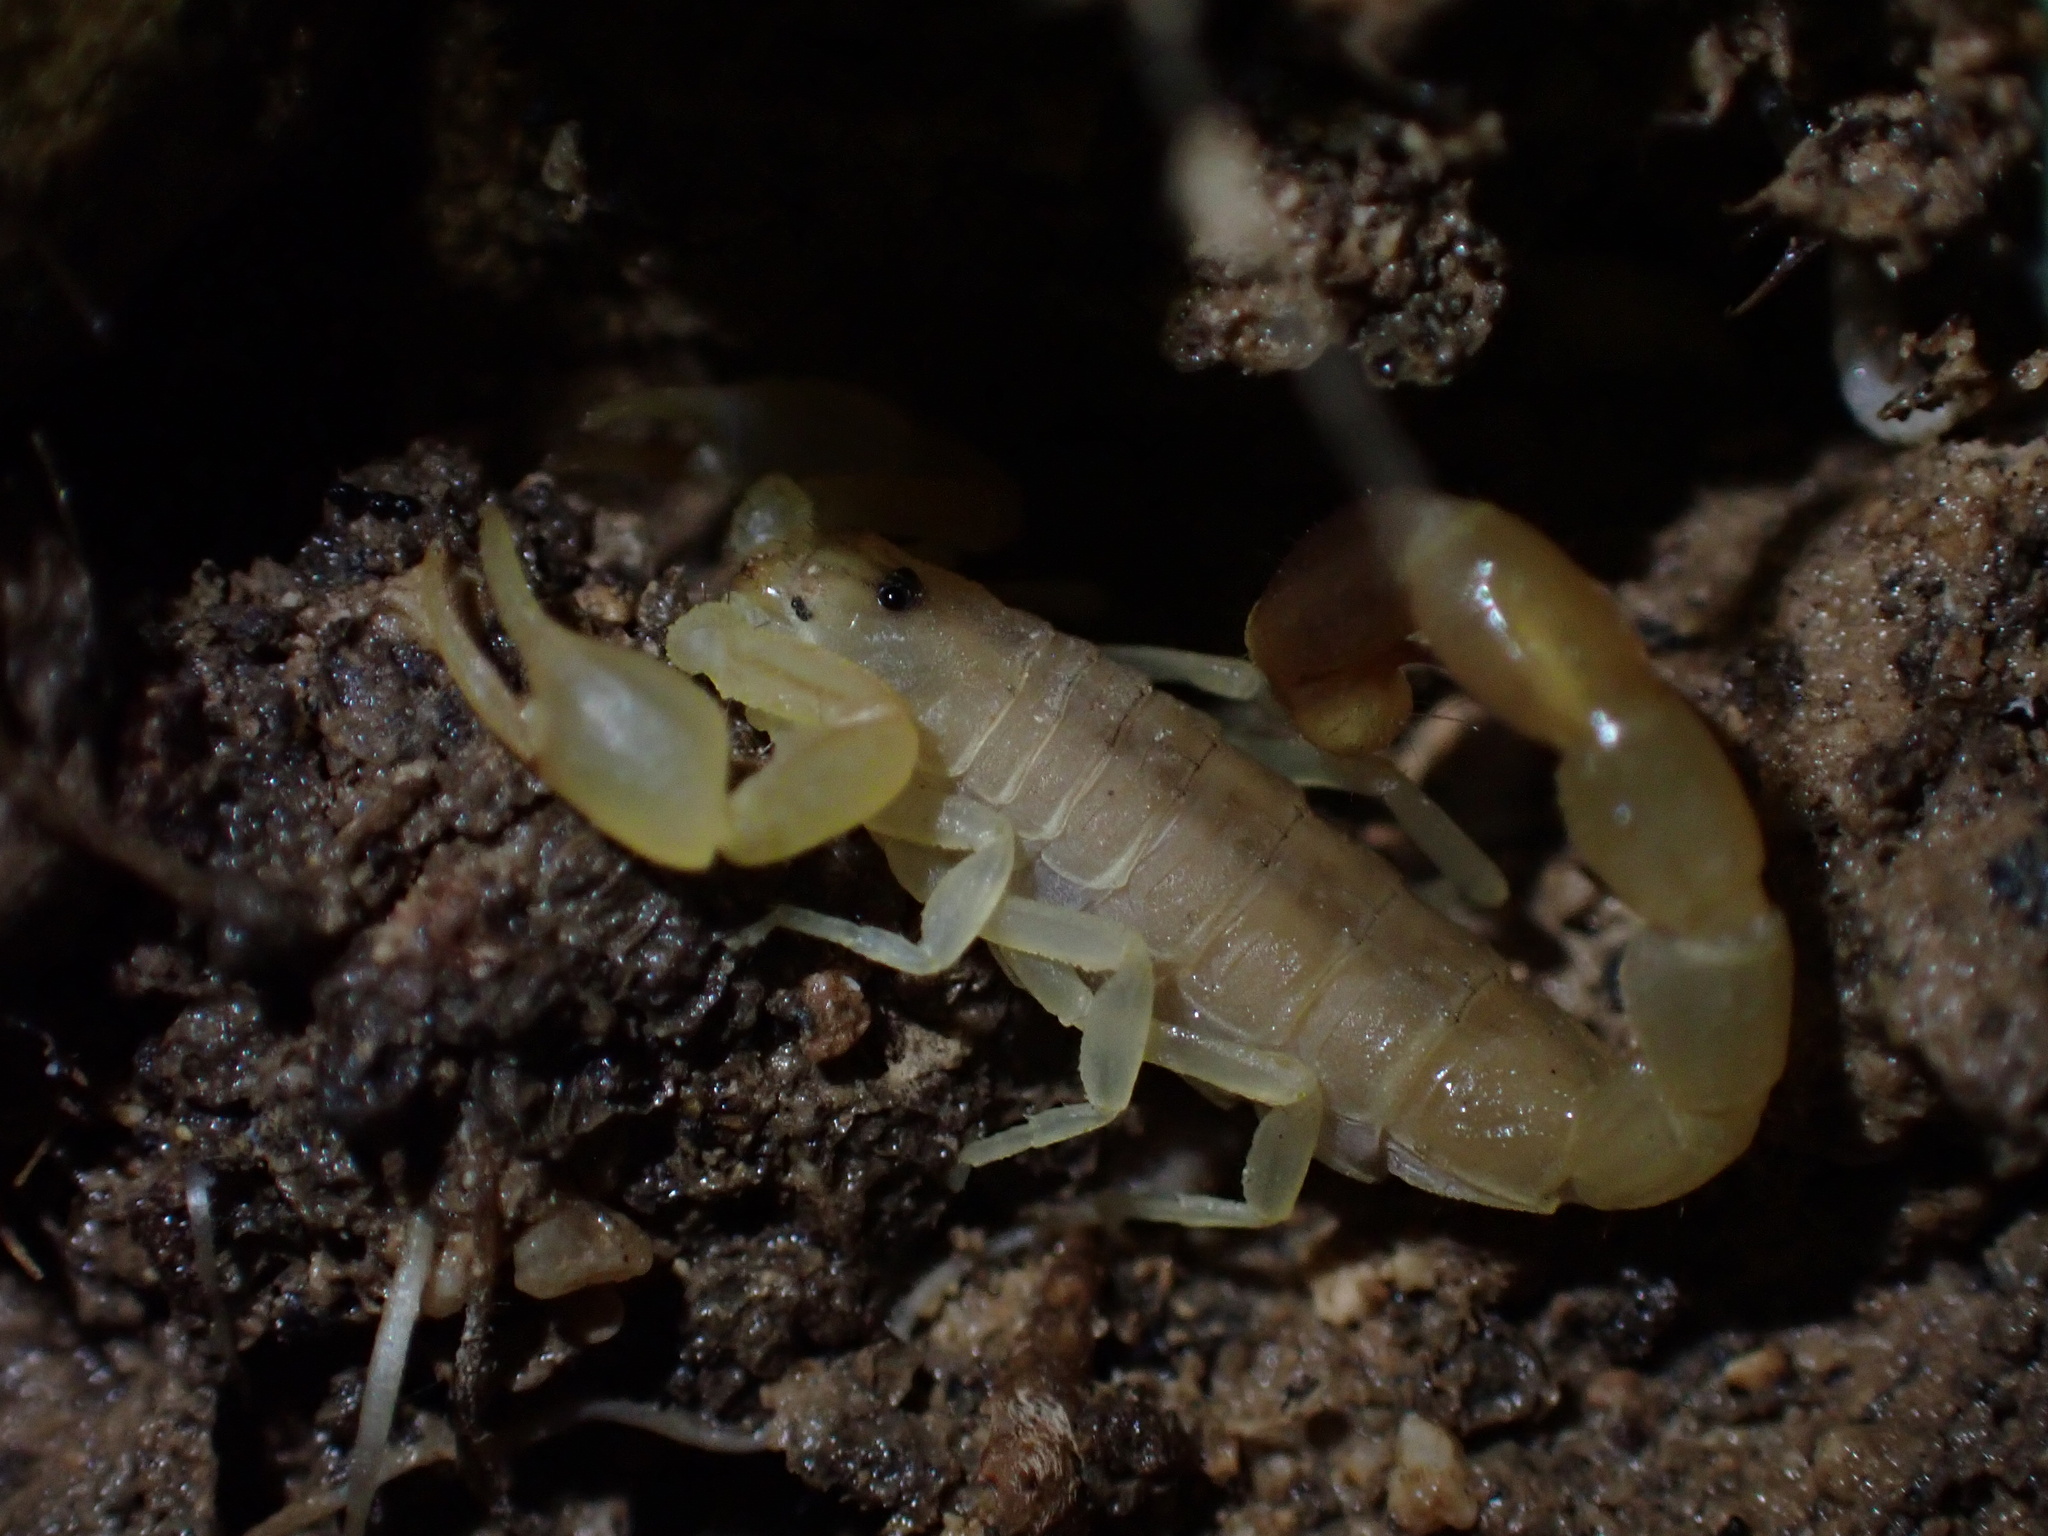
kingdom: Animalia
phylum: Arthropoda
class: Arachnida
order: Scorpiones
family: Buthidae
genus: Razianus
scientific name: Razianus zarudnyi
